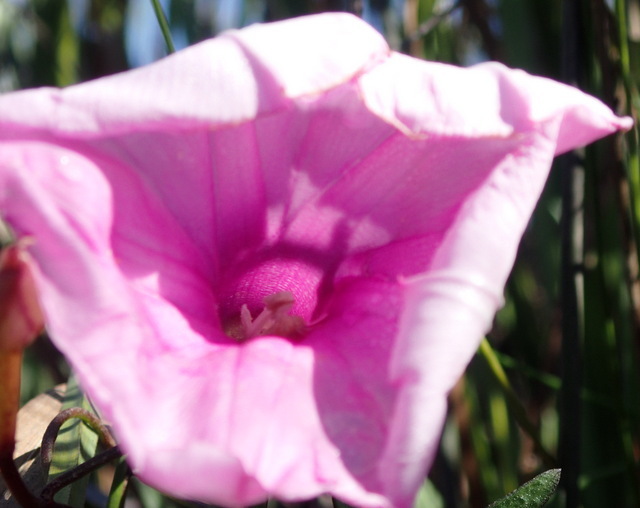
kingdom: Plantae
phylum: Tracheophyta
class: Magnoliopsida
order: Solanales
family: Convolvulaceae
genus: Ipomoea
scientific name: Ipomoea sagittata
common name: Saltmarsh morning glory
